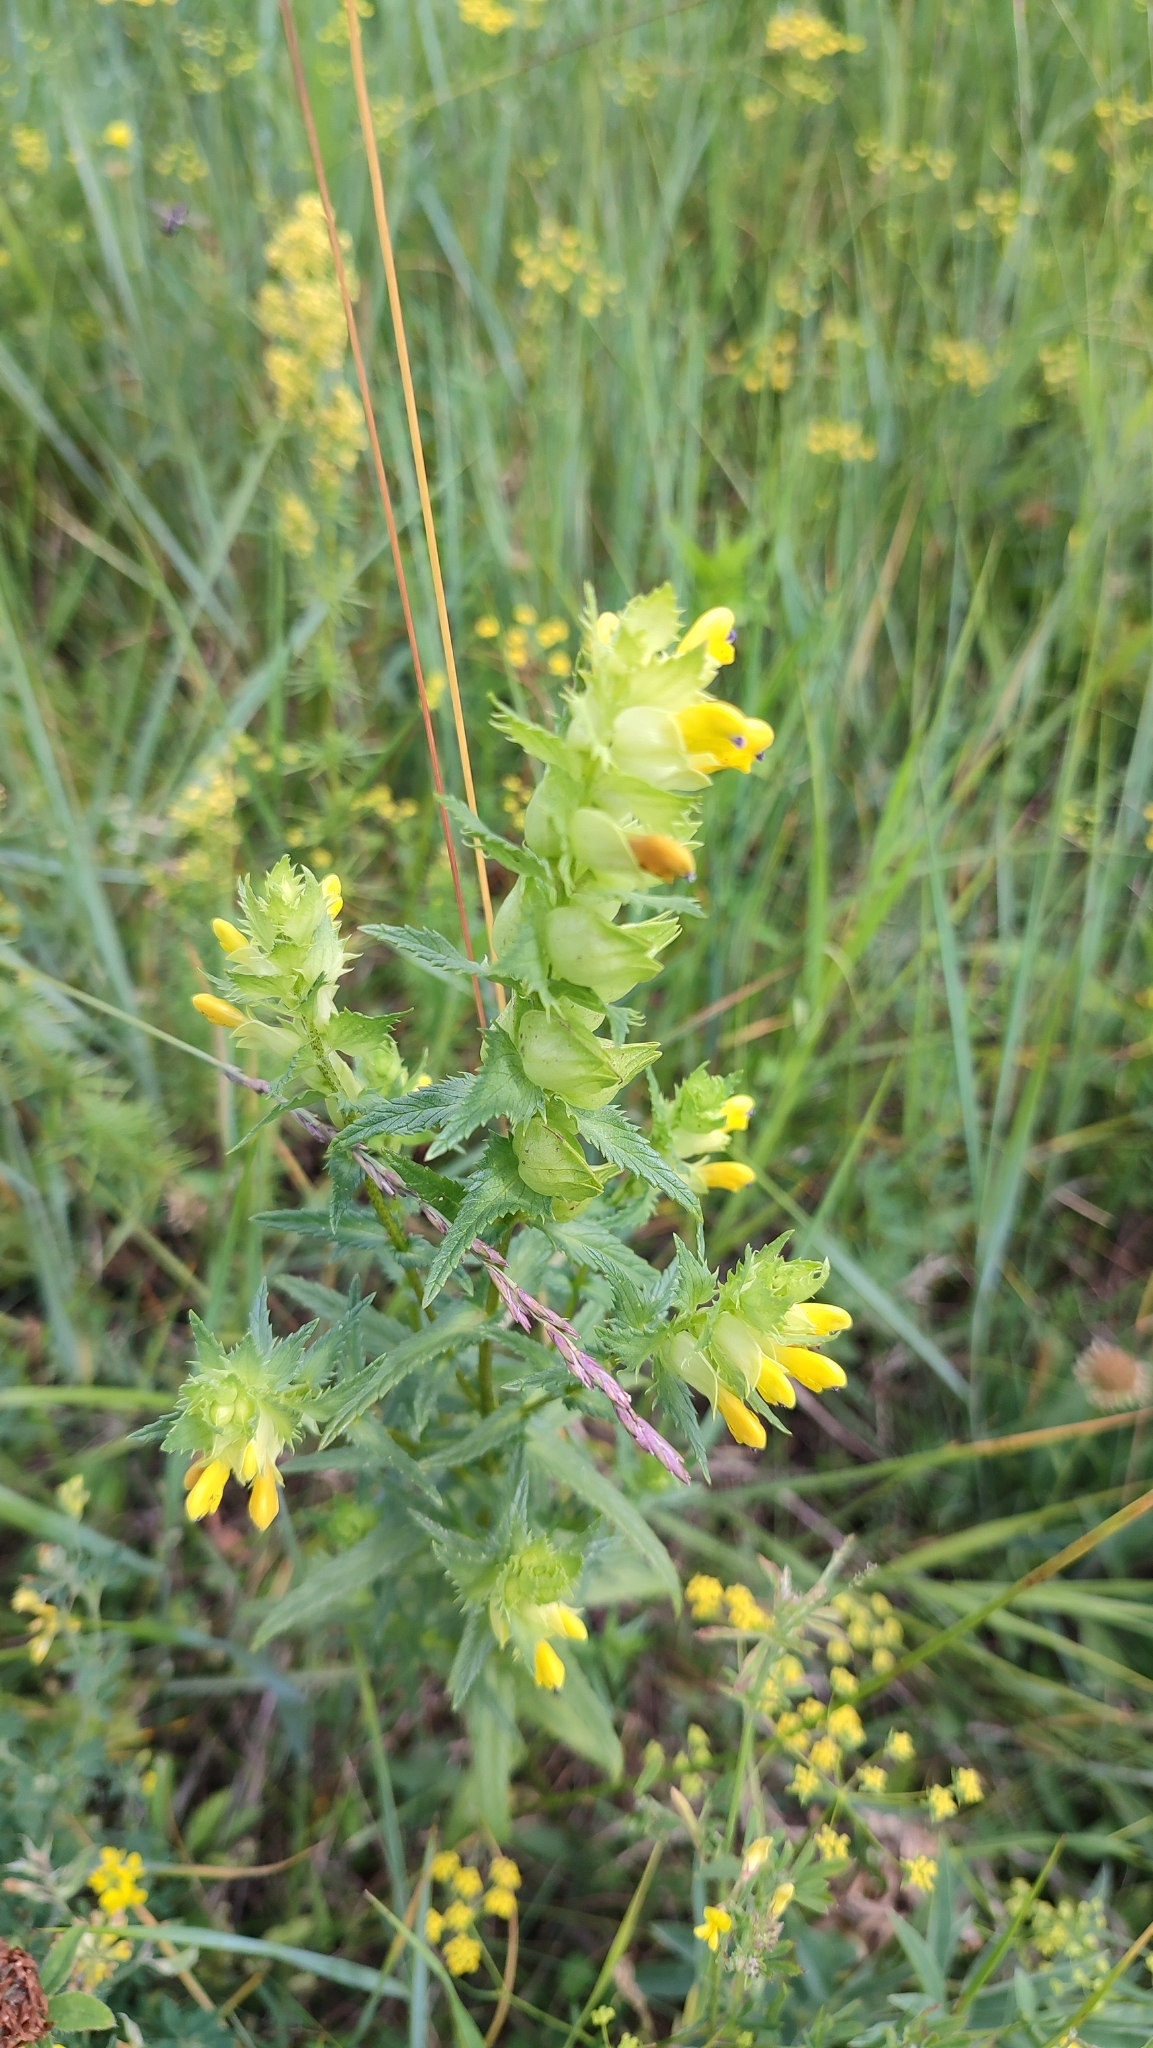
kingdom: Plantae
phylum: Tracheophyta
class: Magnoliopsida
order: Lamiales
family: Orobanchaceae
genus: Rhinanthus
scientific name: Rhinanthus serotinus
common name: Late-flowering yellow rattle
